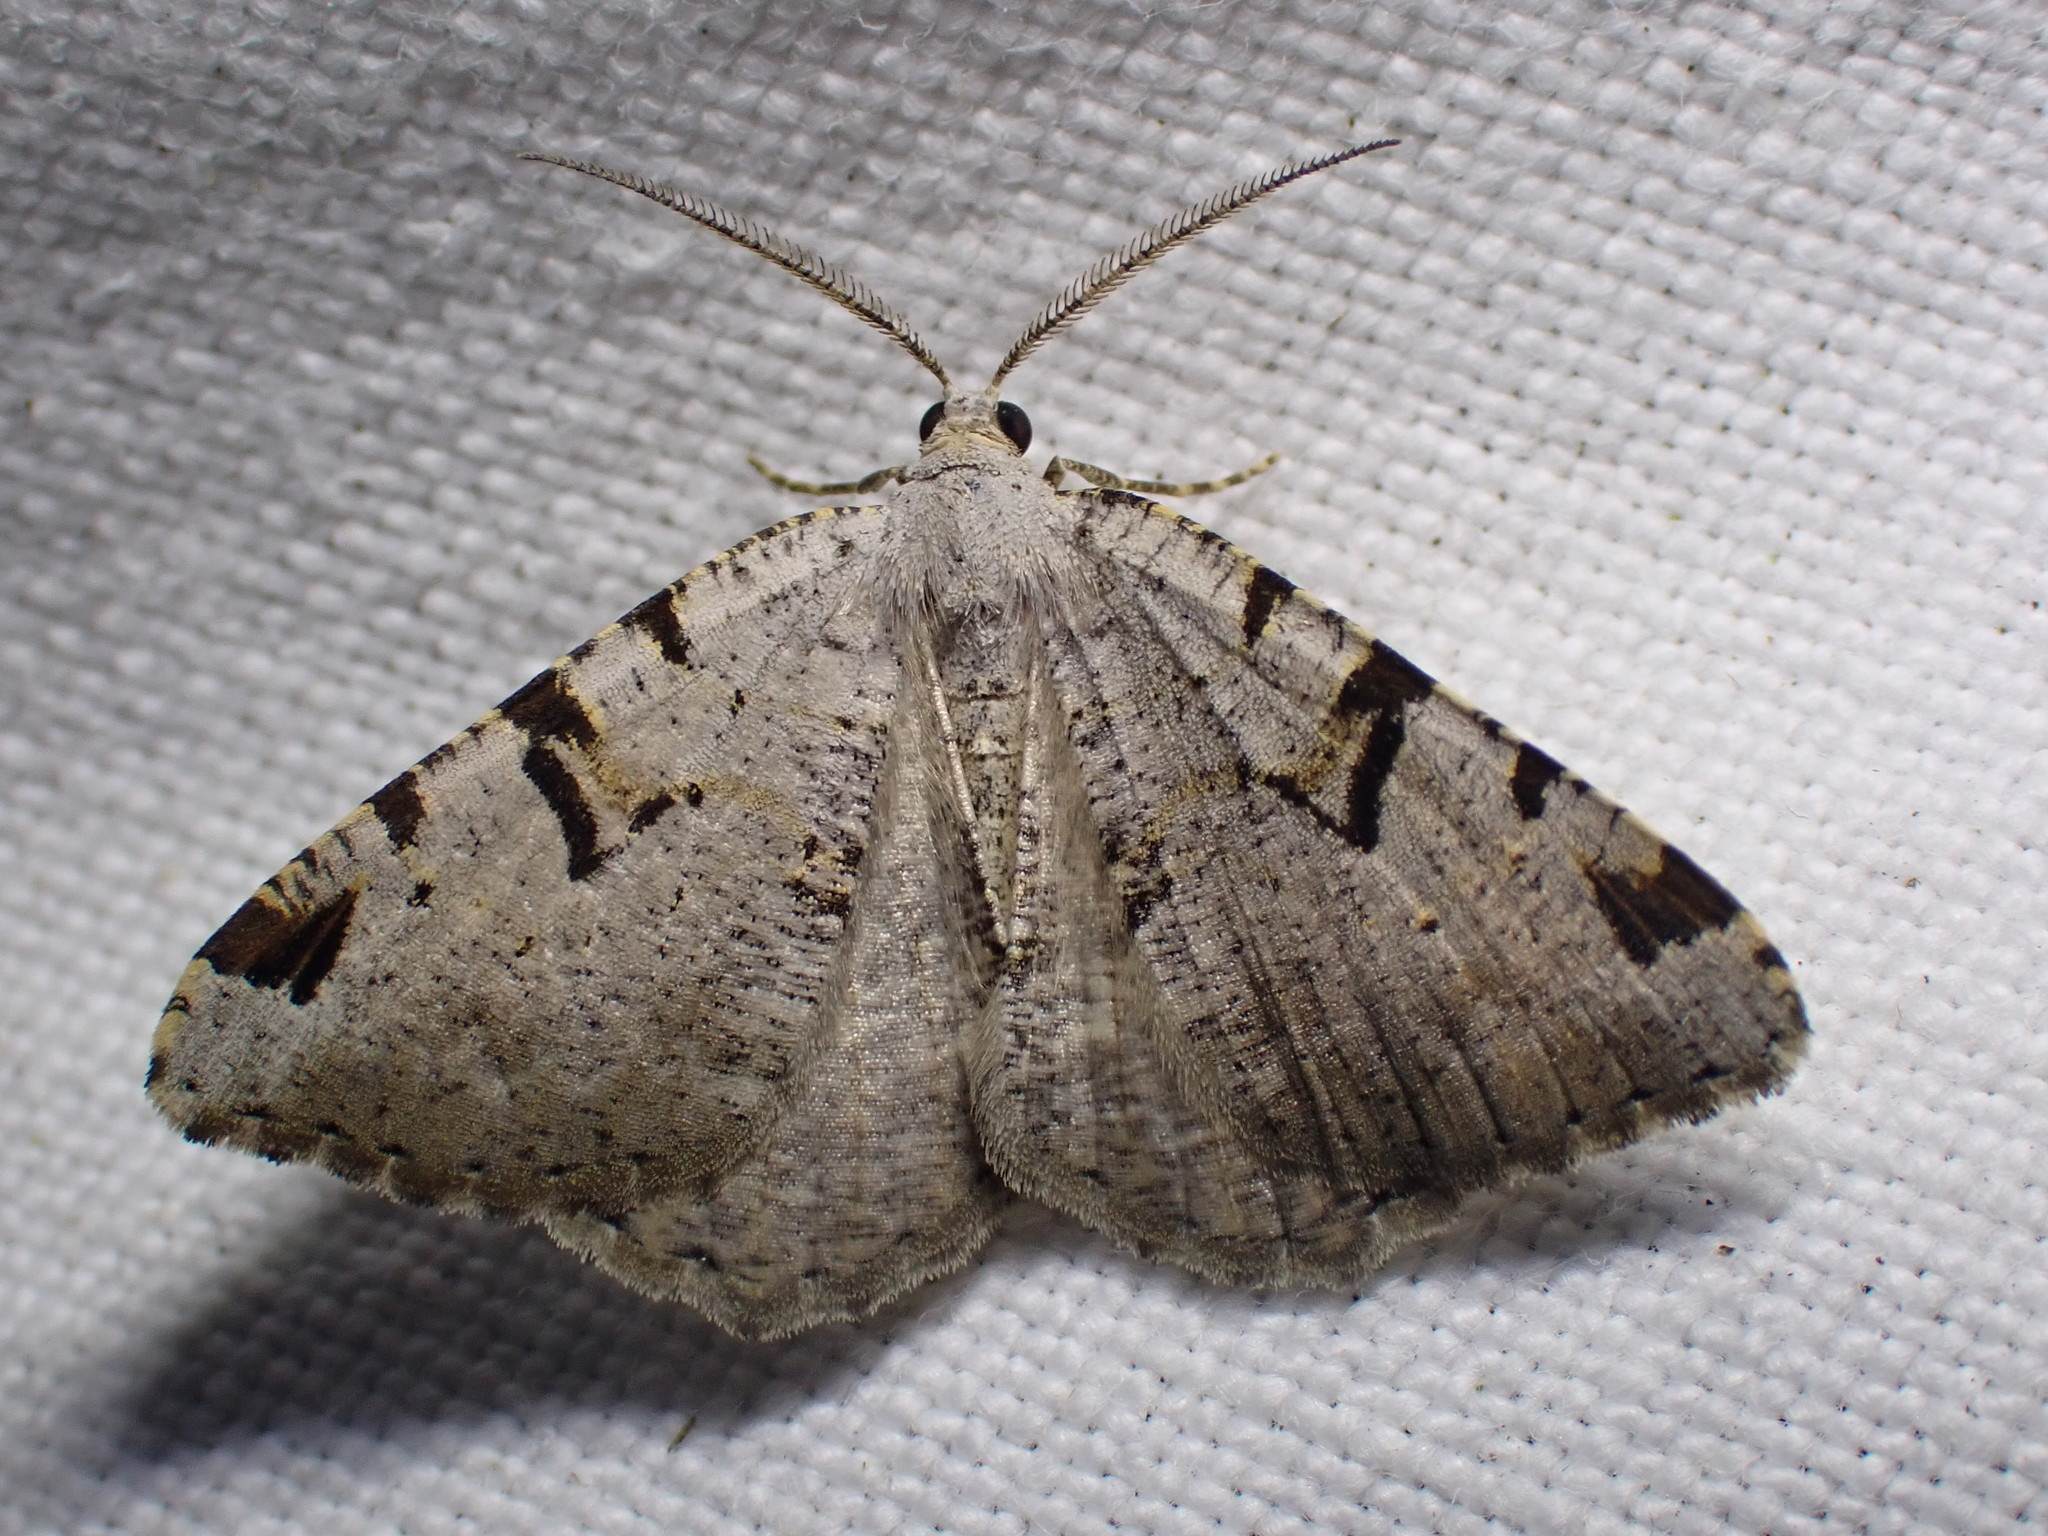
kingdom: Animalia
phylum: Arthropoda
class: Insecta
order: Lepidoptera
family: Geometridae
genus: Macaria
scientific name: Macaria wauaria
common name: V-moth
